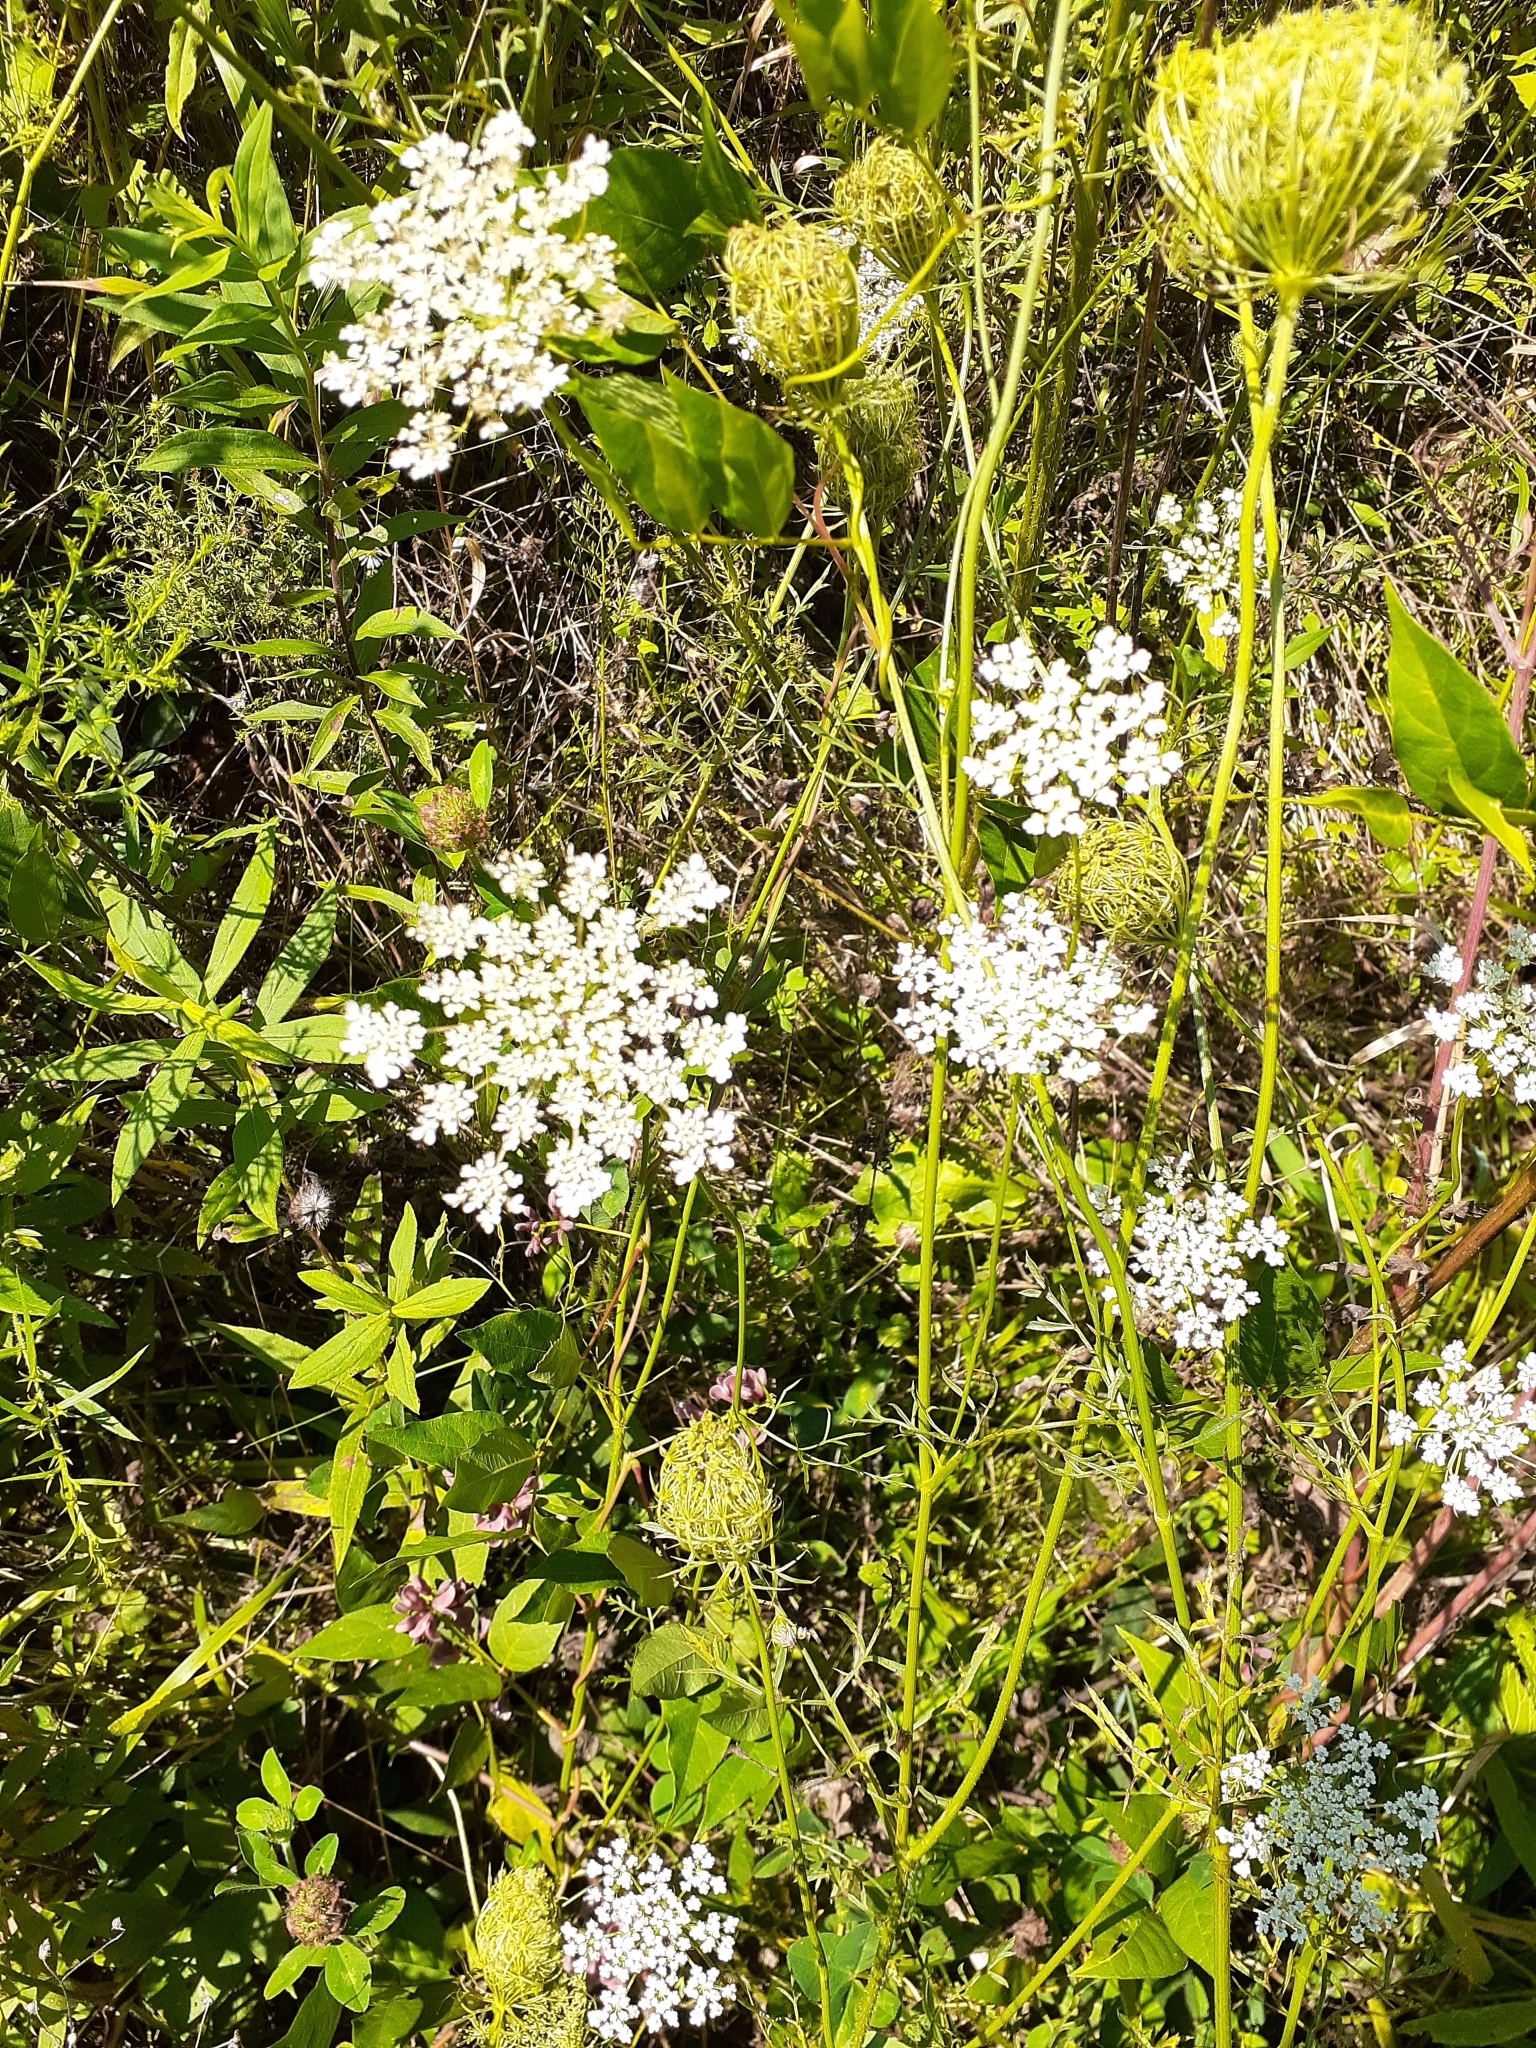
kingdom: Plantae
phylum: Tracheophyta
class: Magnoliopsida
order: Apiales
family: Apiaceae
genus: Daucus
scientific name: Daucus carota
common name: Wild carrot
